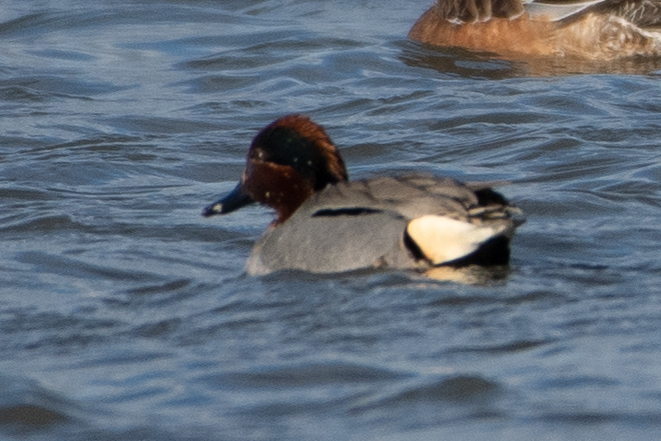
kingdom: Animalia
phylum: Chordata
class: Aves
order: Anseriformes
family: Anatidae
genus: Anas
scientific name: Anas crecca
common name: Eurasian teal
